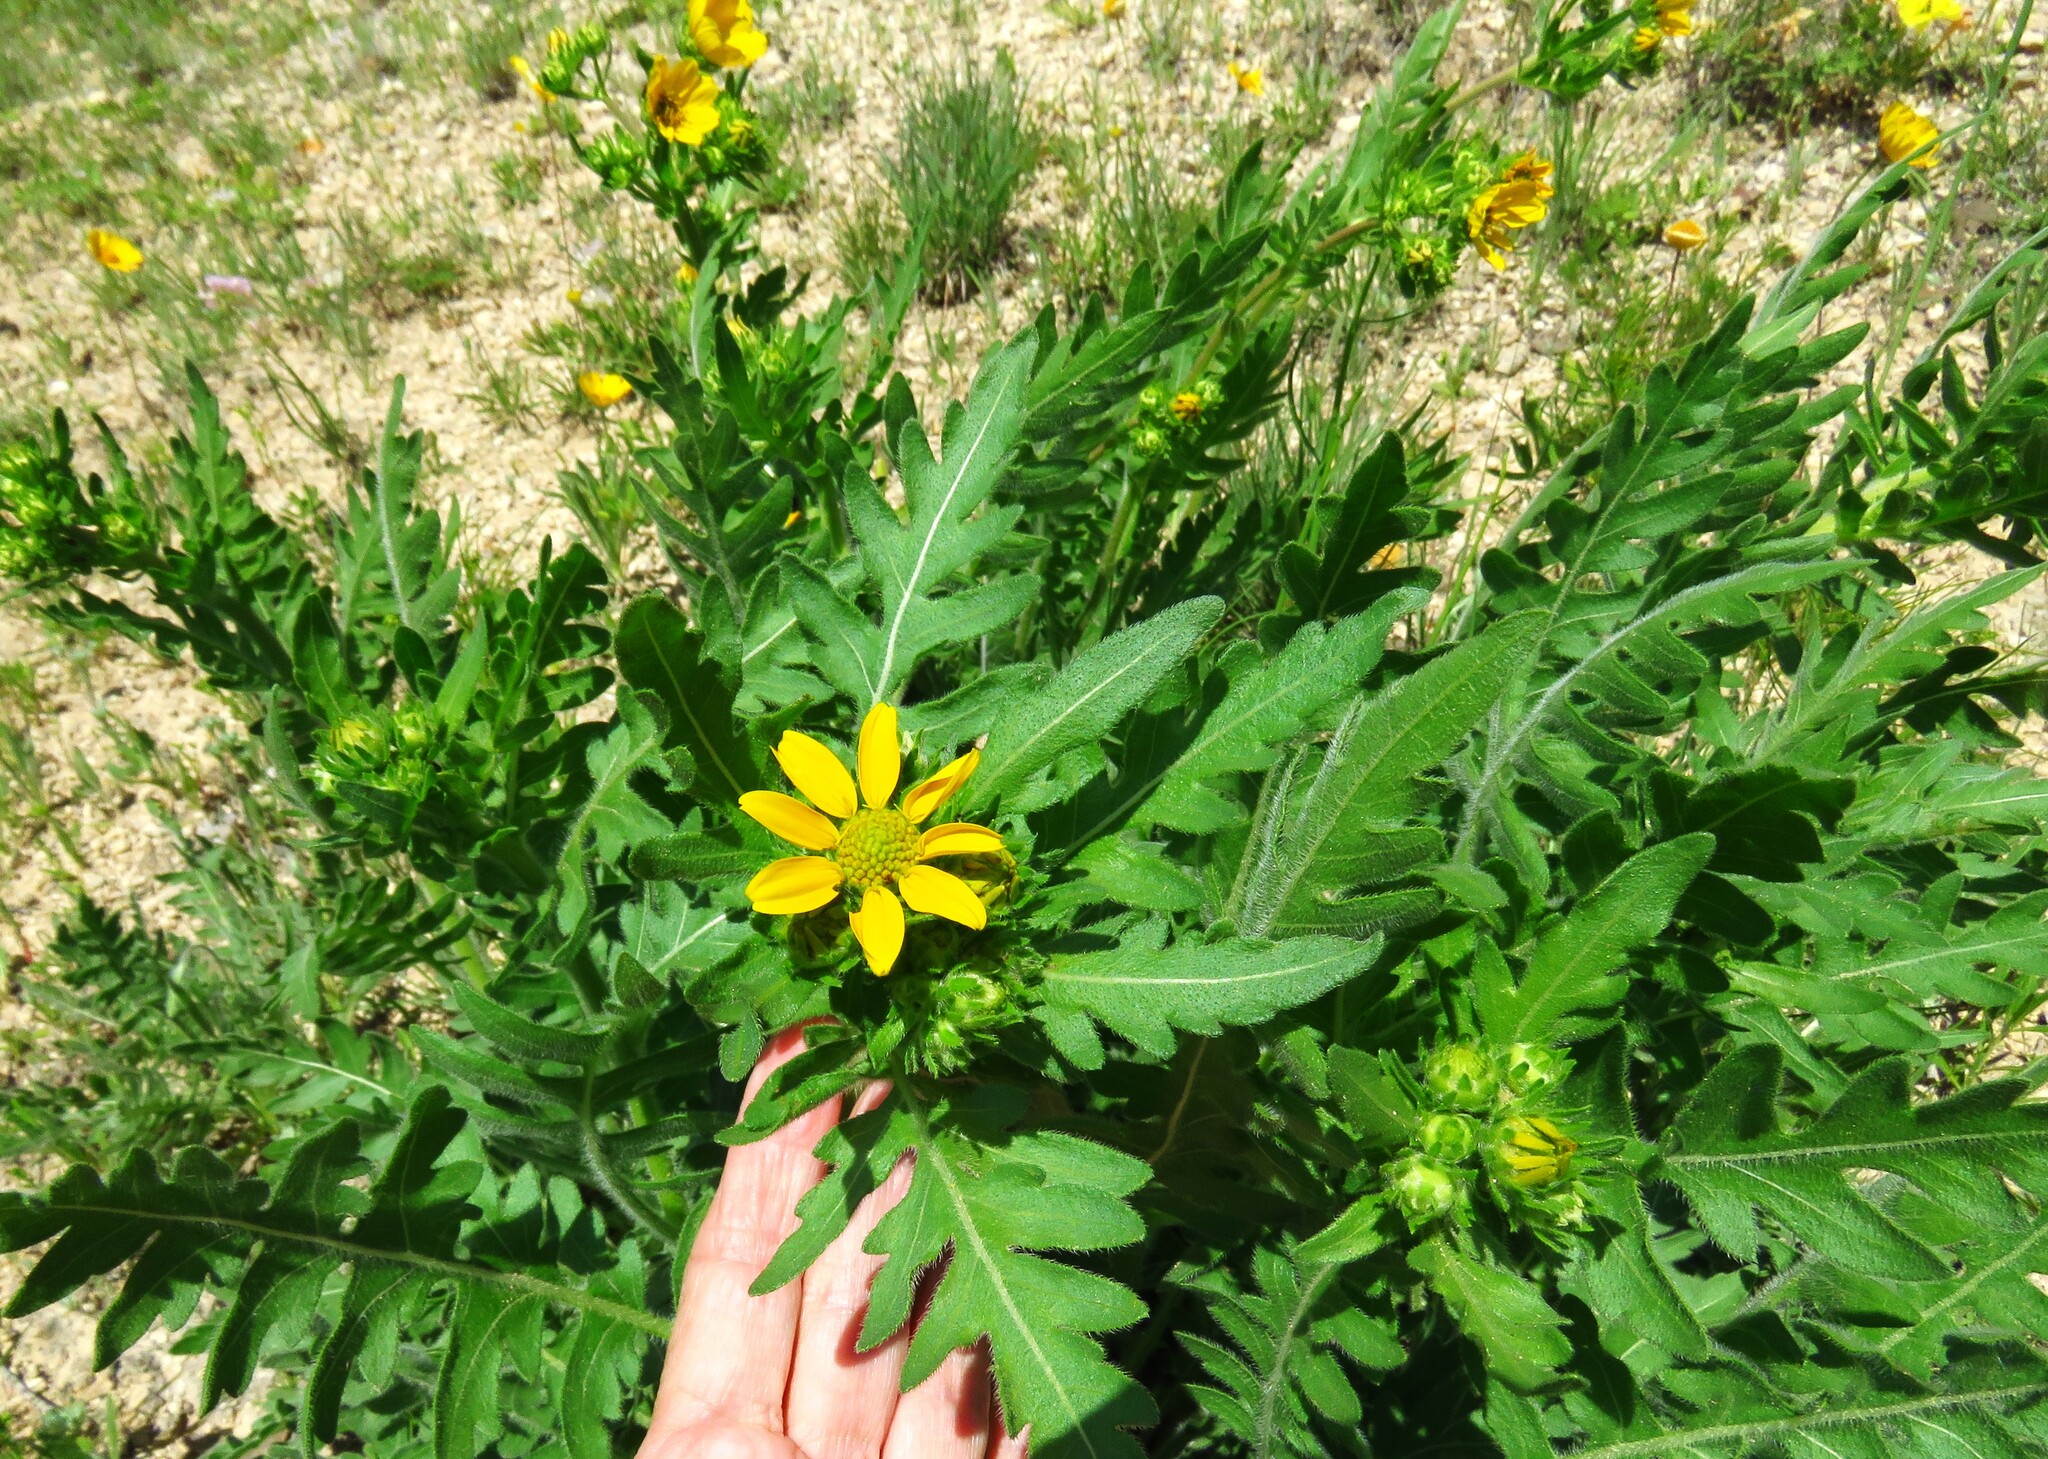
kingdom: Plantae
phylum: Tracheophyta
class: Magnoliopsida
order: Asterales
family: Asteraceae
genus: Engelmannia
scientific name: Engelmannia peristenia
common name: Engelmann's daisy
